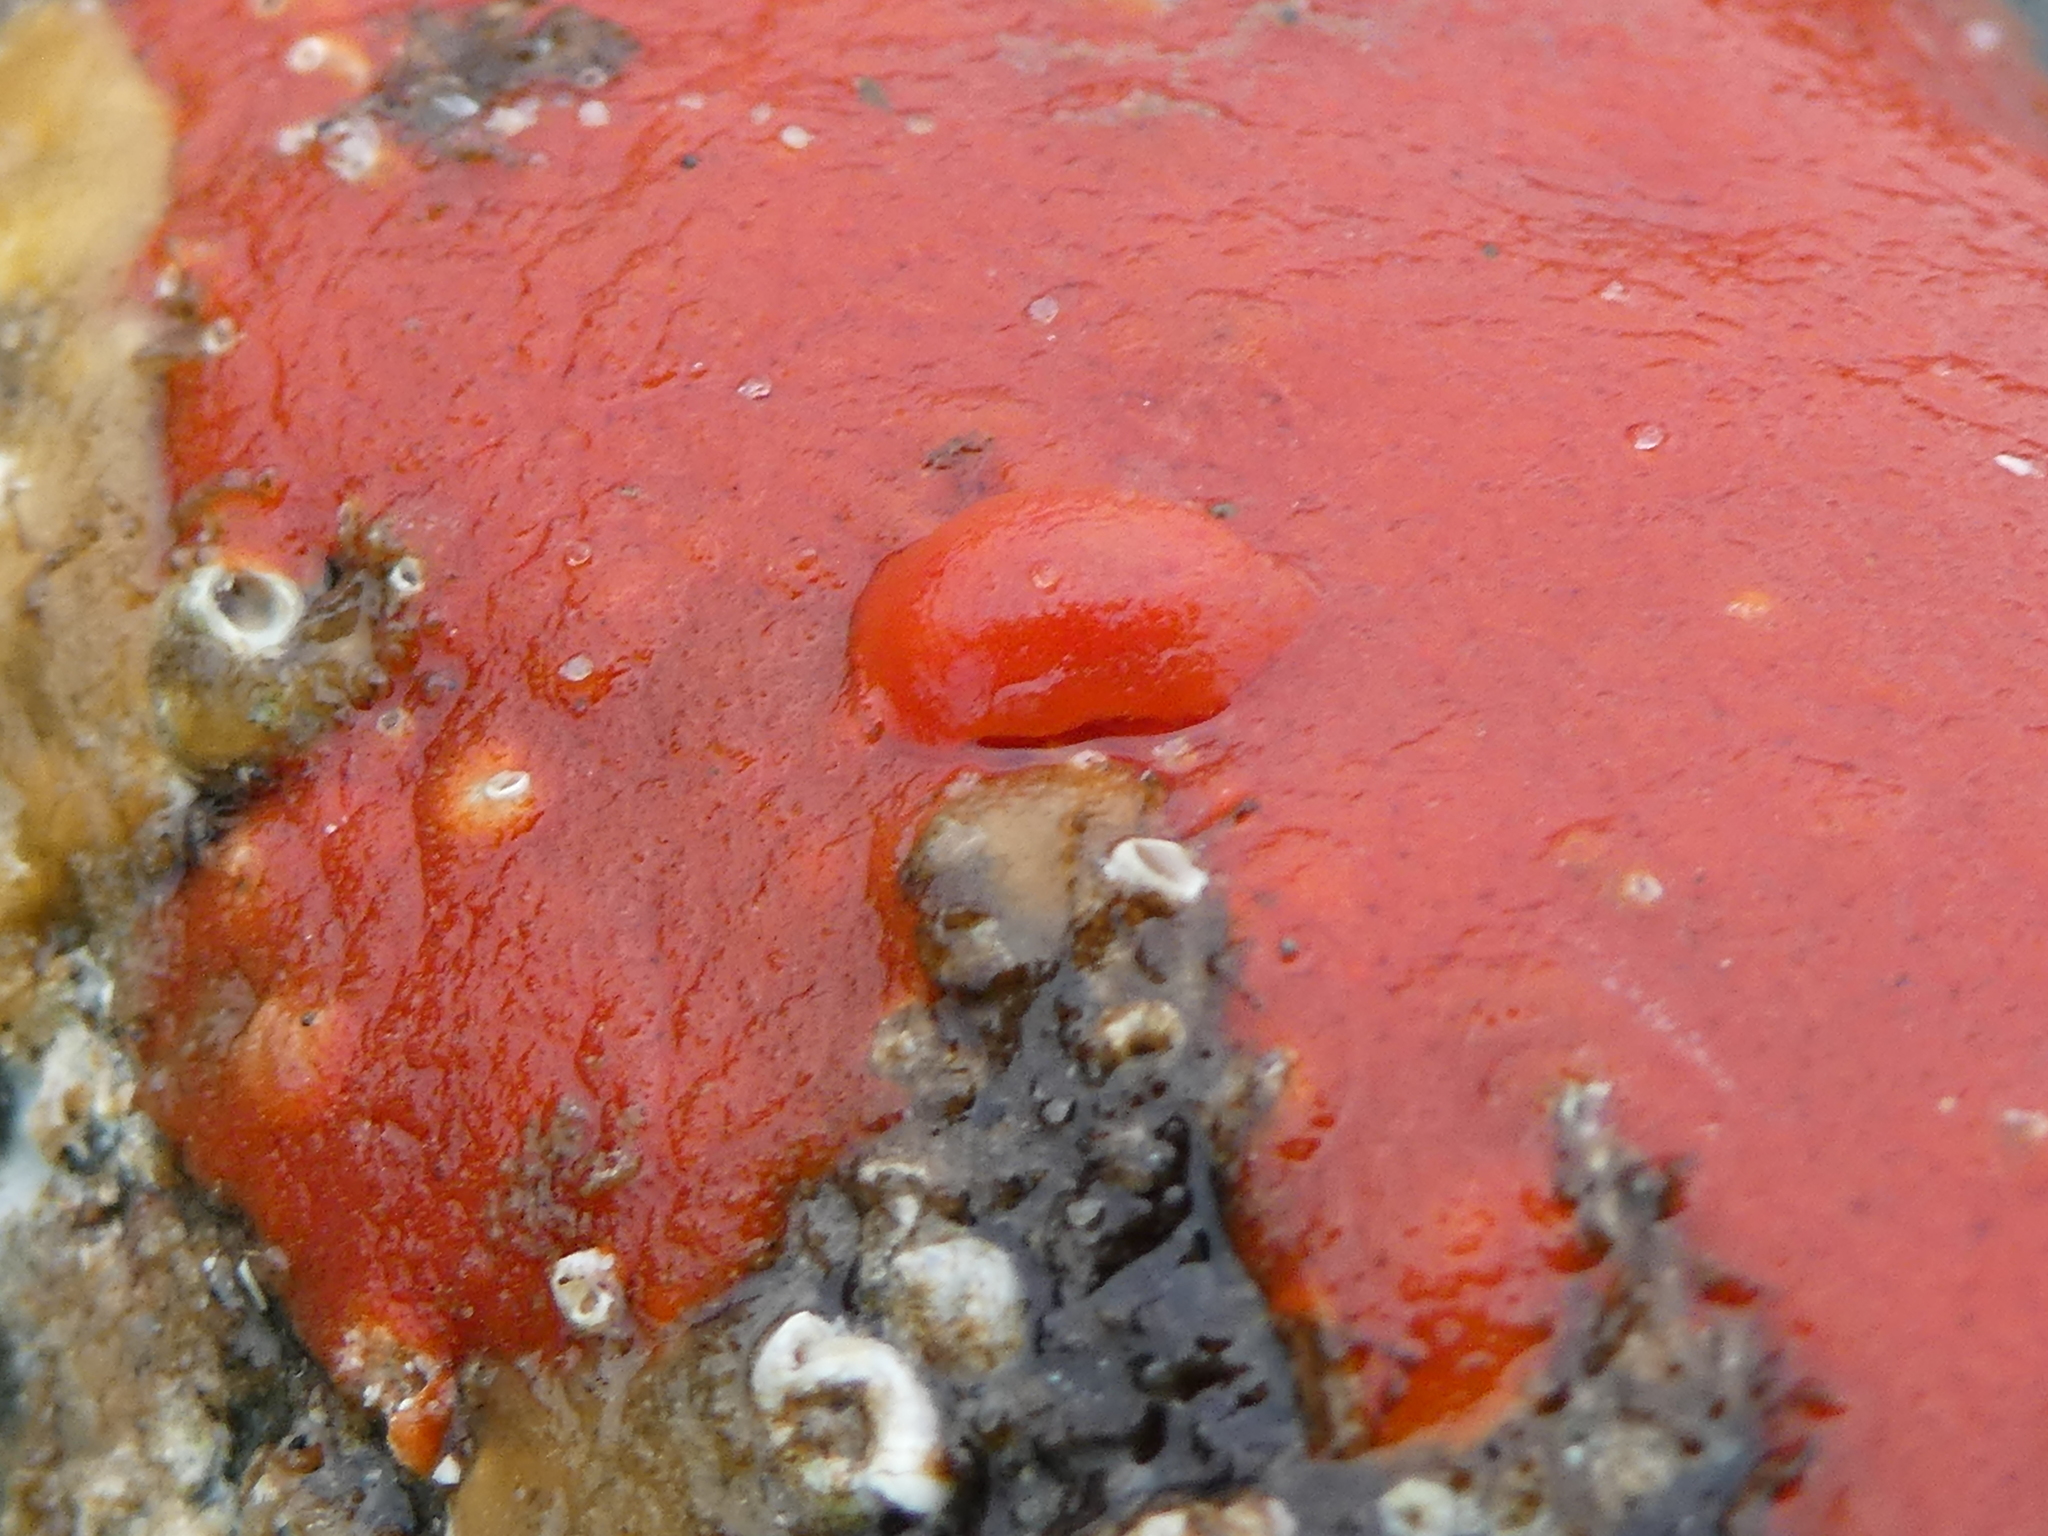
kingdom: Animalia
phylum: Mollusca
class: Gastropoda
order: Nudibranchia
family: Discodorididae
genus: Rostanga
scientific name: Rostanga pulchra
